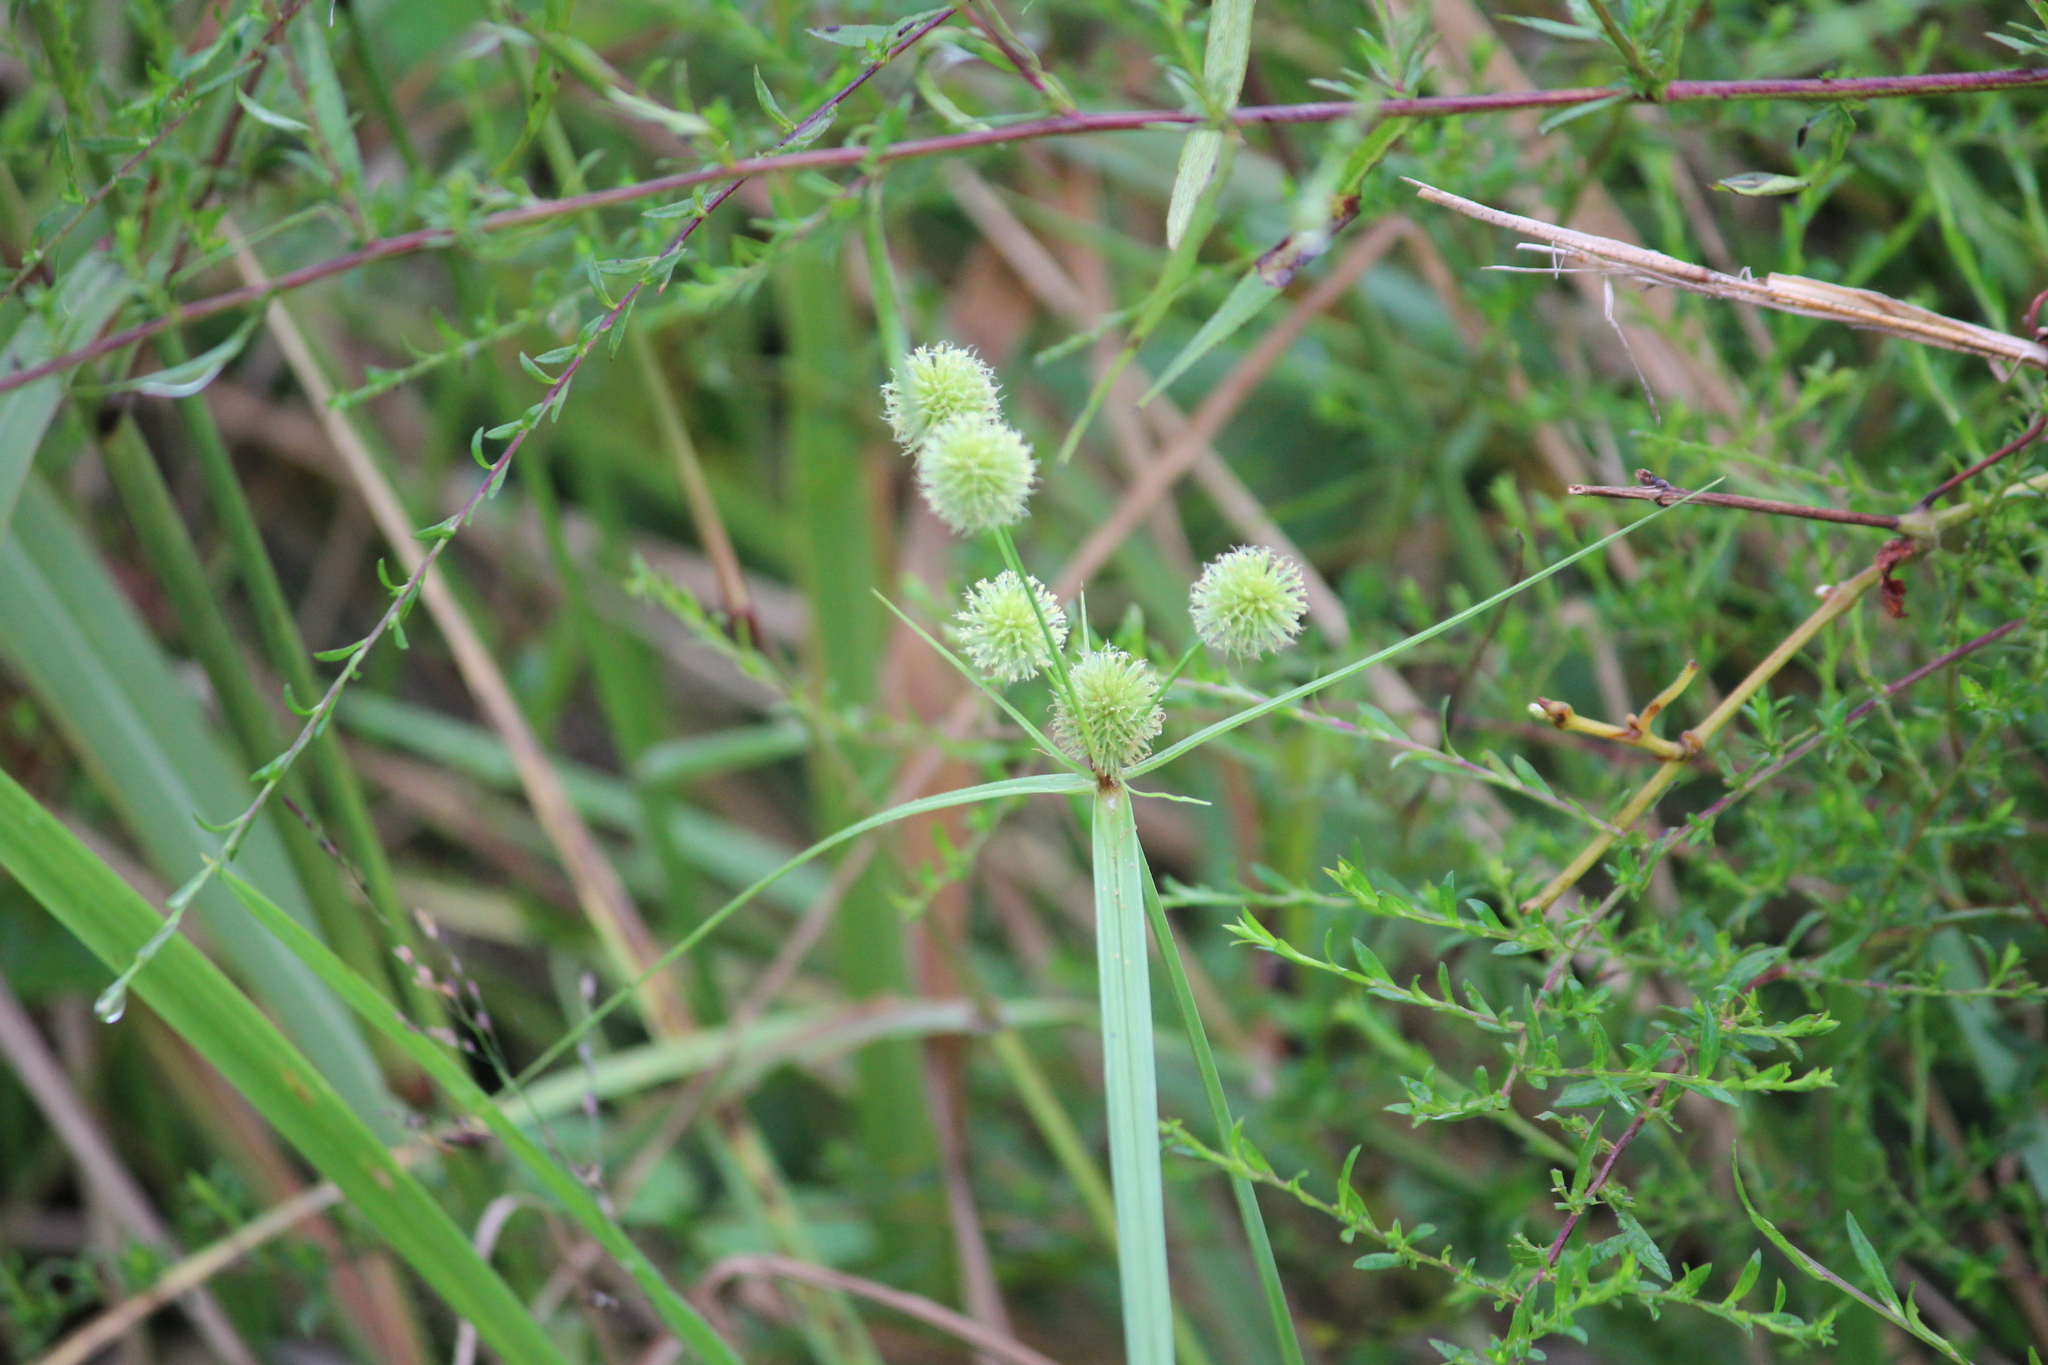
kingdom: Plantae
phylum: Tracheophyta
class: Liliopsida
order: Poales
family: Cyperaceae
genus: Cyperus
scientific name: Cyperus echinatus
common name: Teasel sedge
